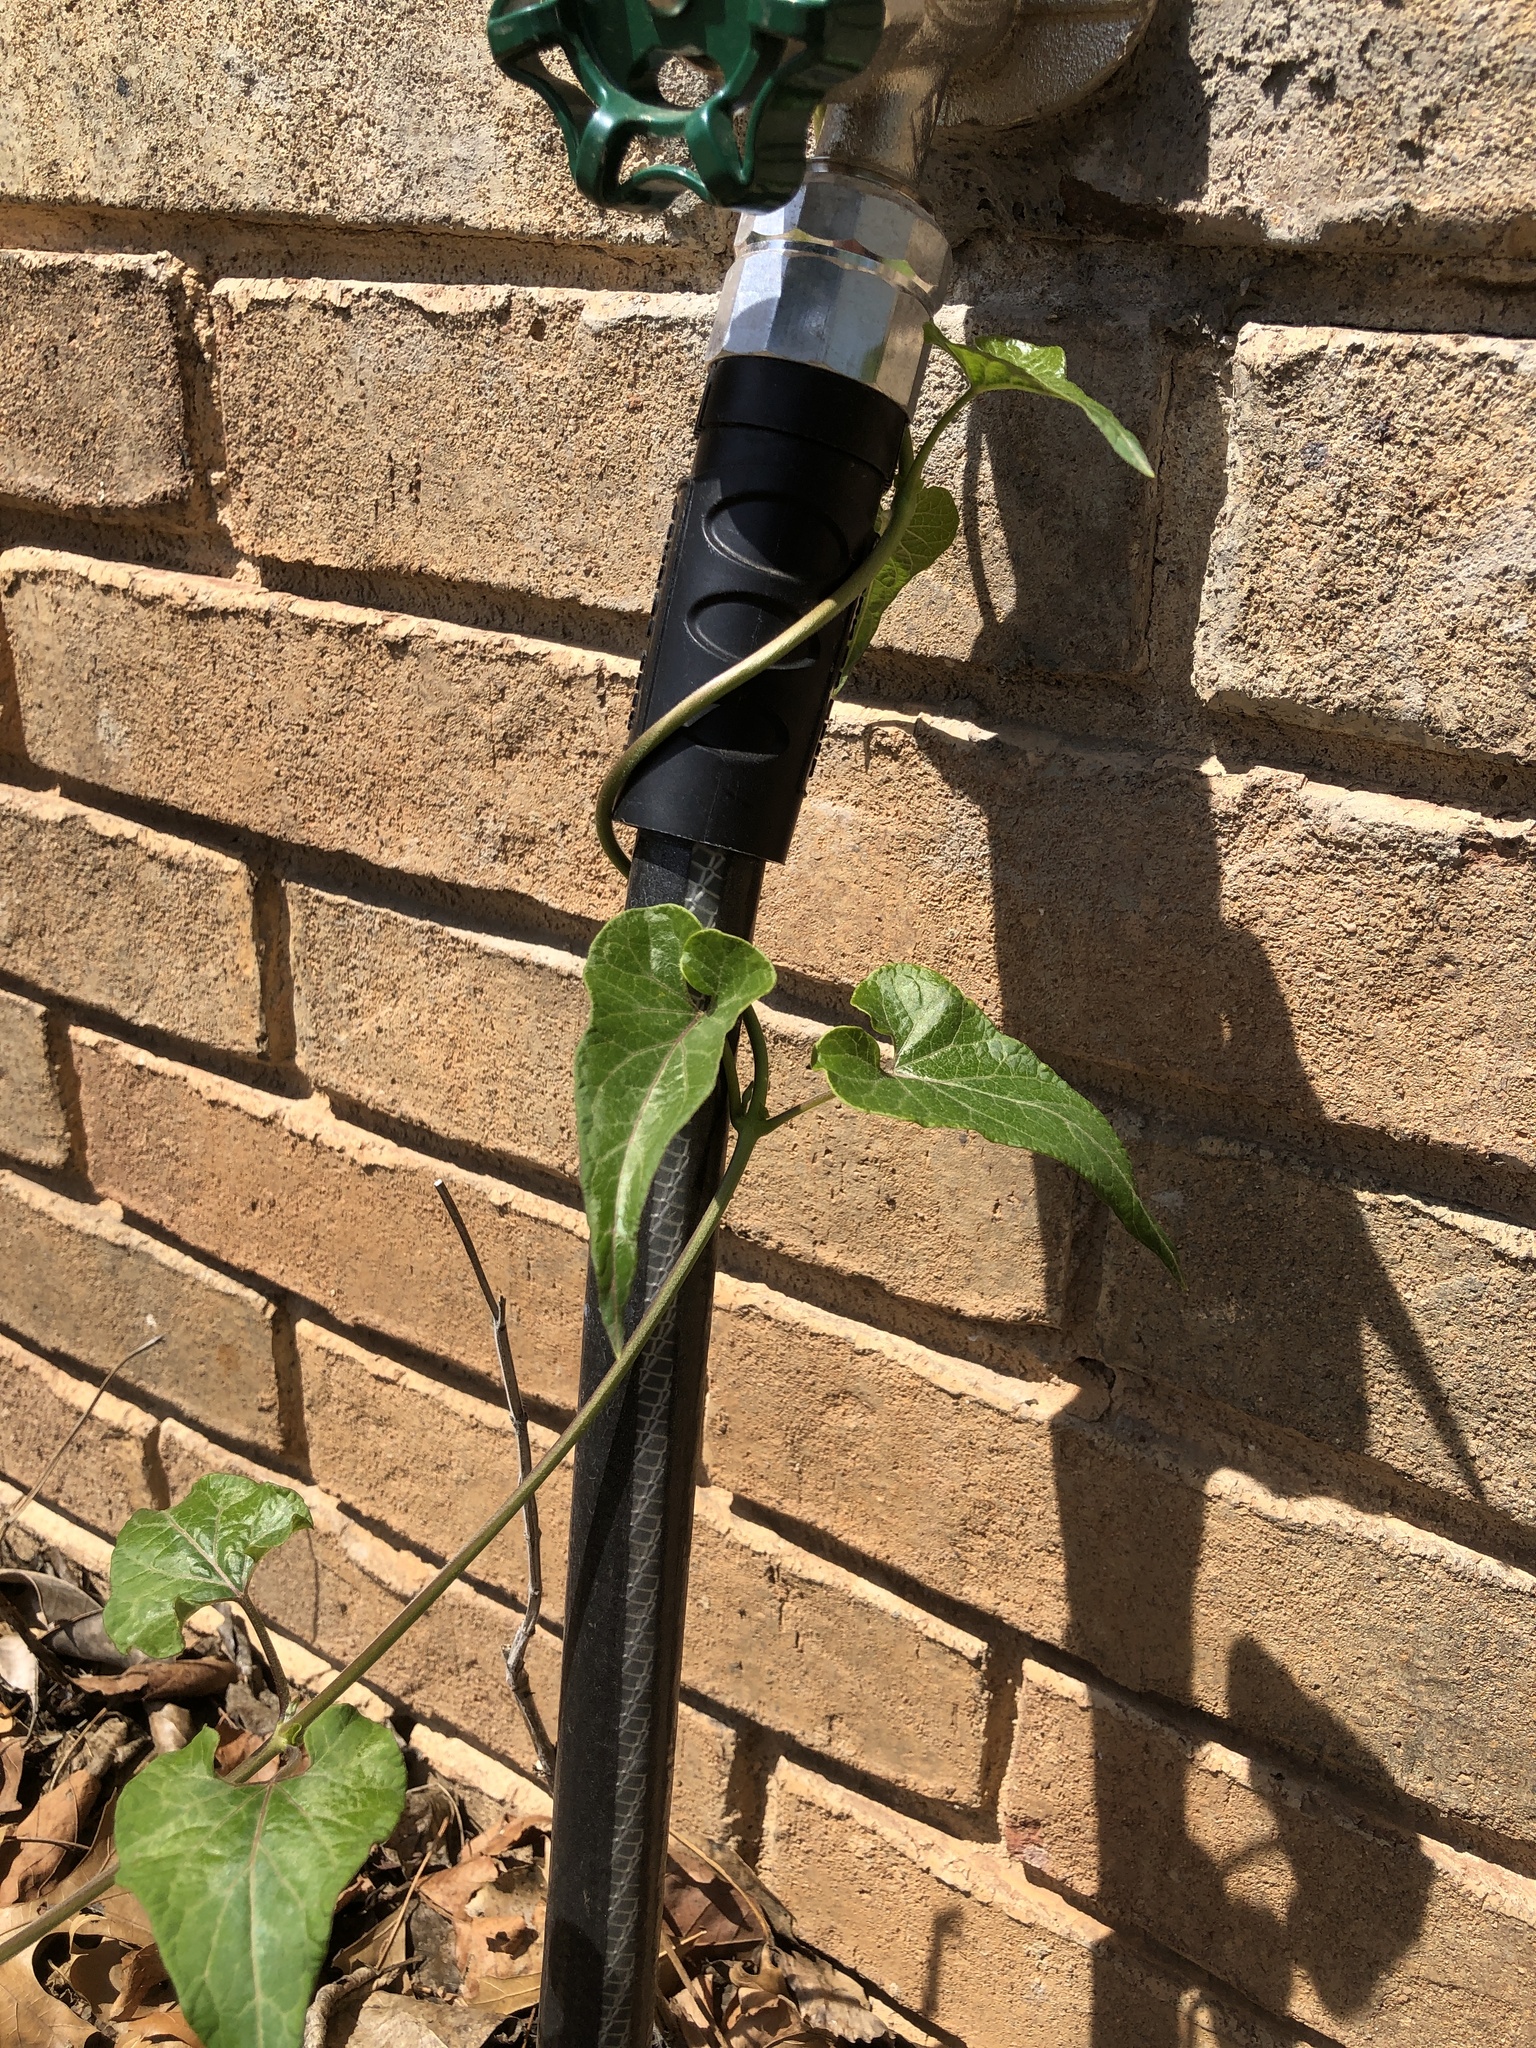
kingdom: Plantae
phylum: Tracheophyta
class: Magnoliopsida
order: Gentianales
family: Apocynaceae
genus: Cynanchum
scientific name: Cynanchum laeve
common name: Sandvine
